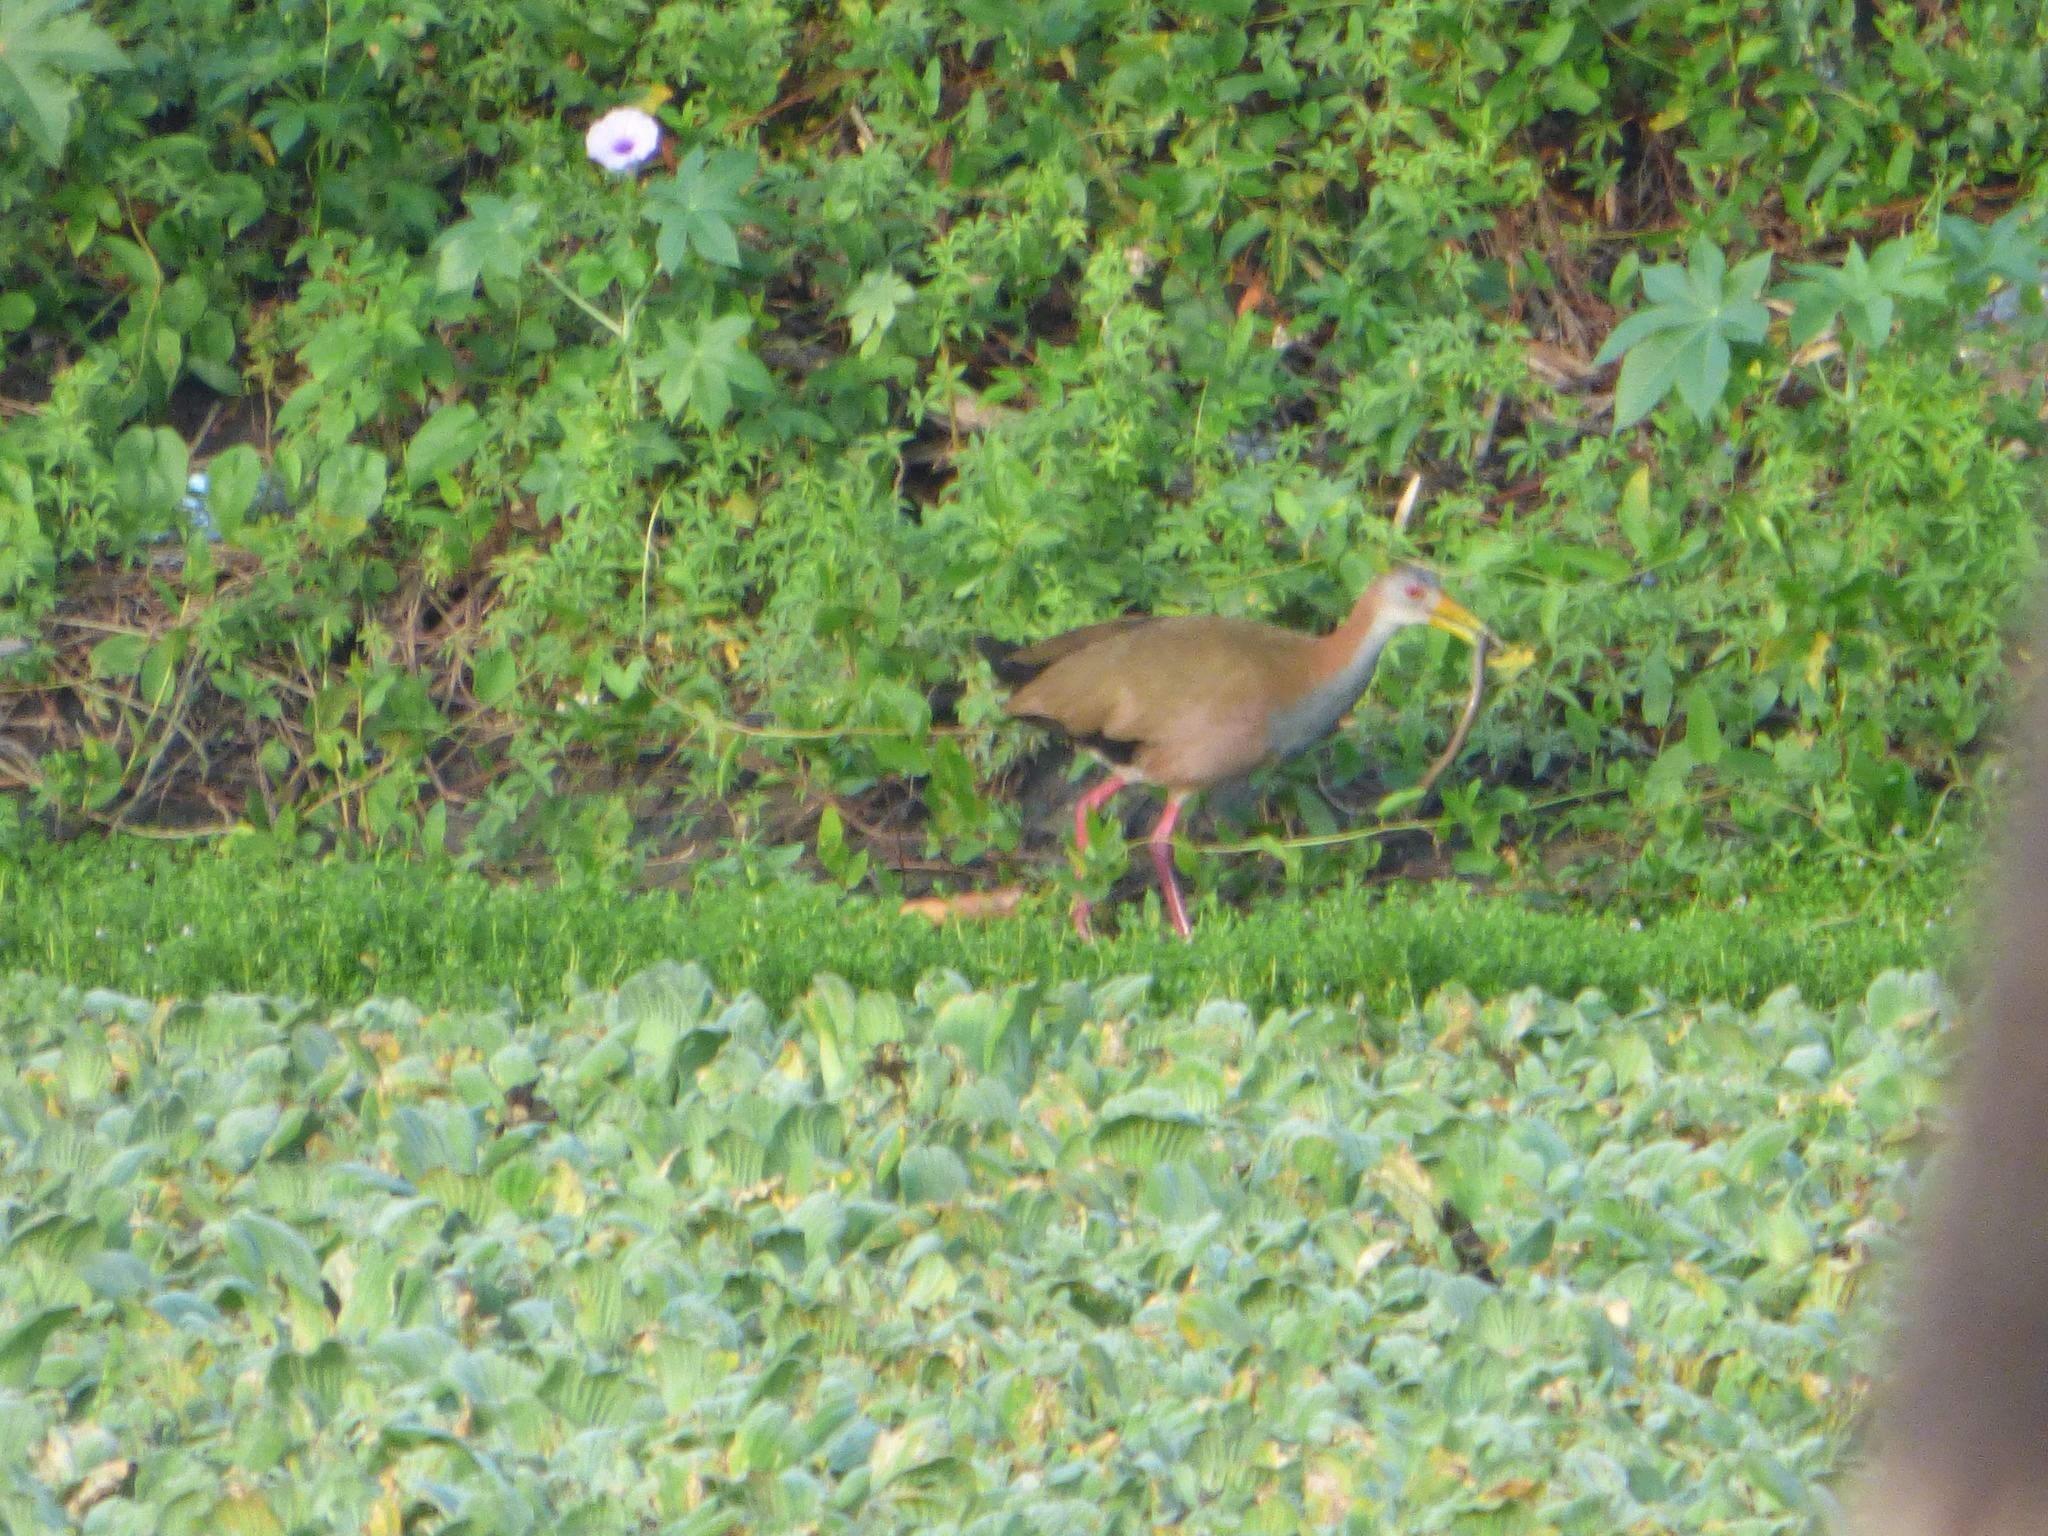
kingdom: Animalia
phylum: Chordata
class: Aves
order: Gruiformes
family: Rallidae
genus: Aramides
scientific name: Aramides ypecaha
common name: Giant wood rail
